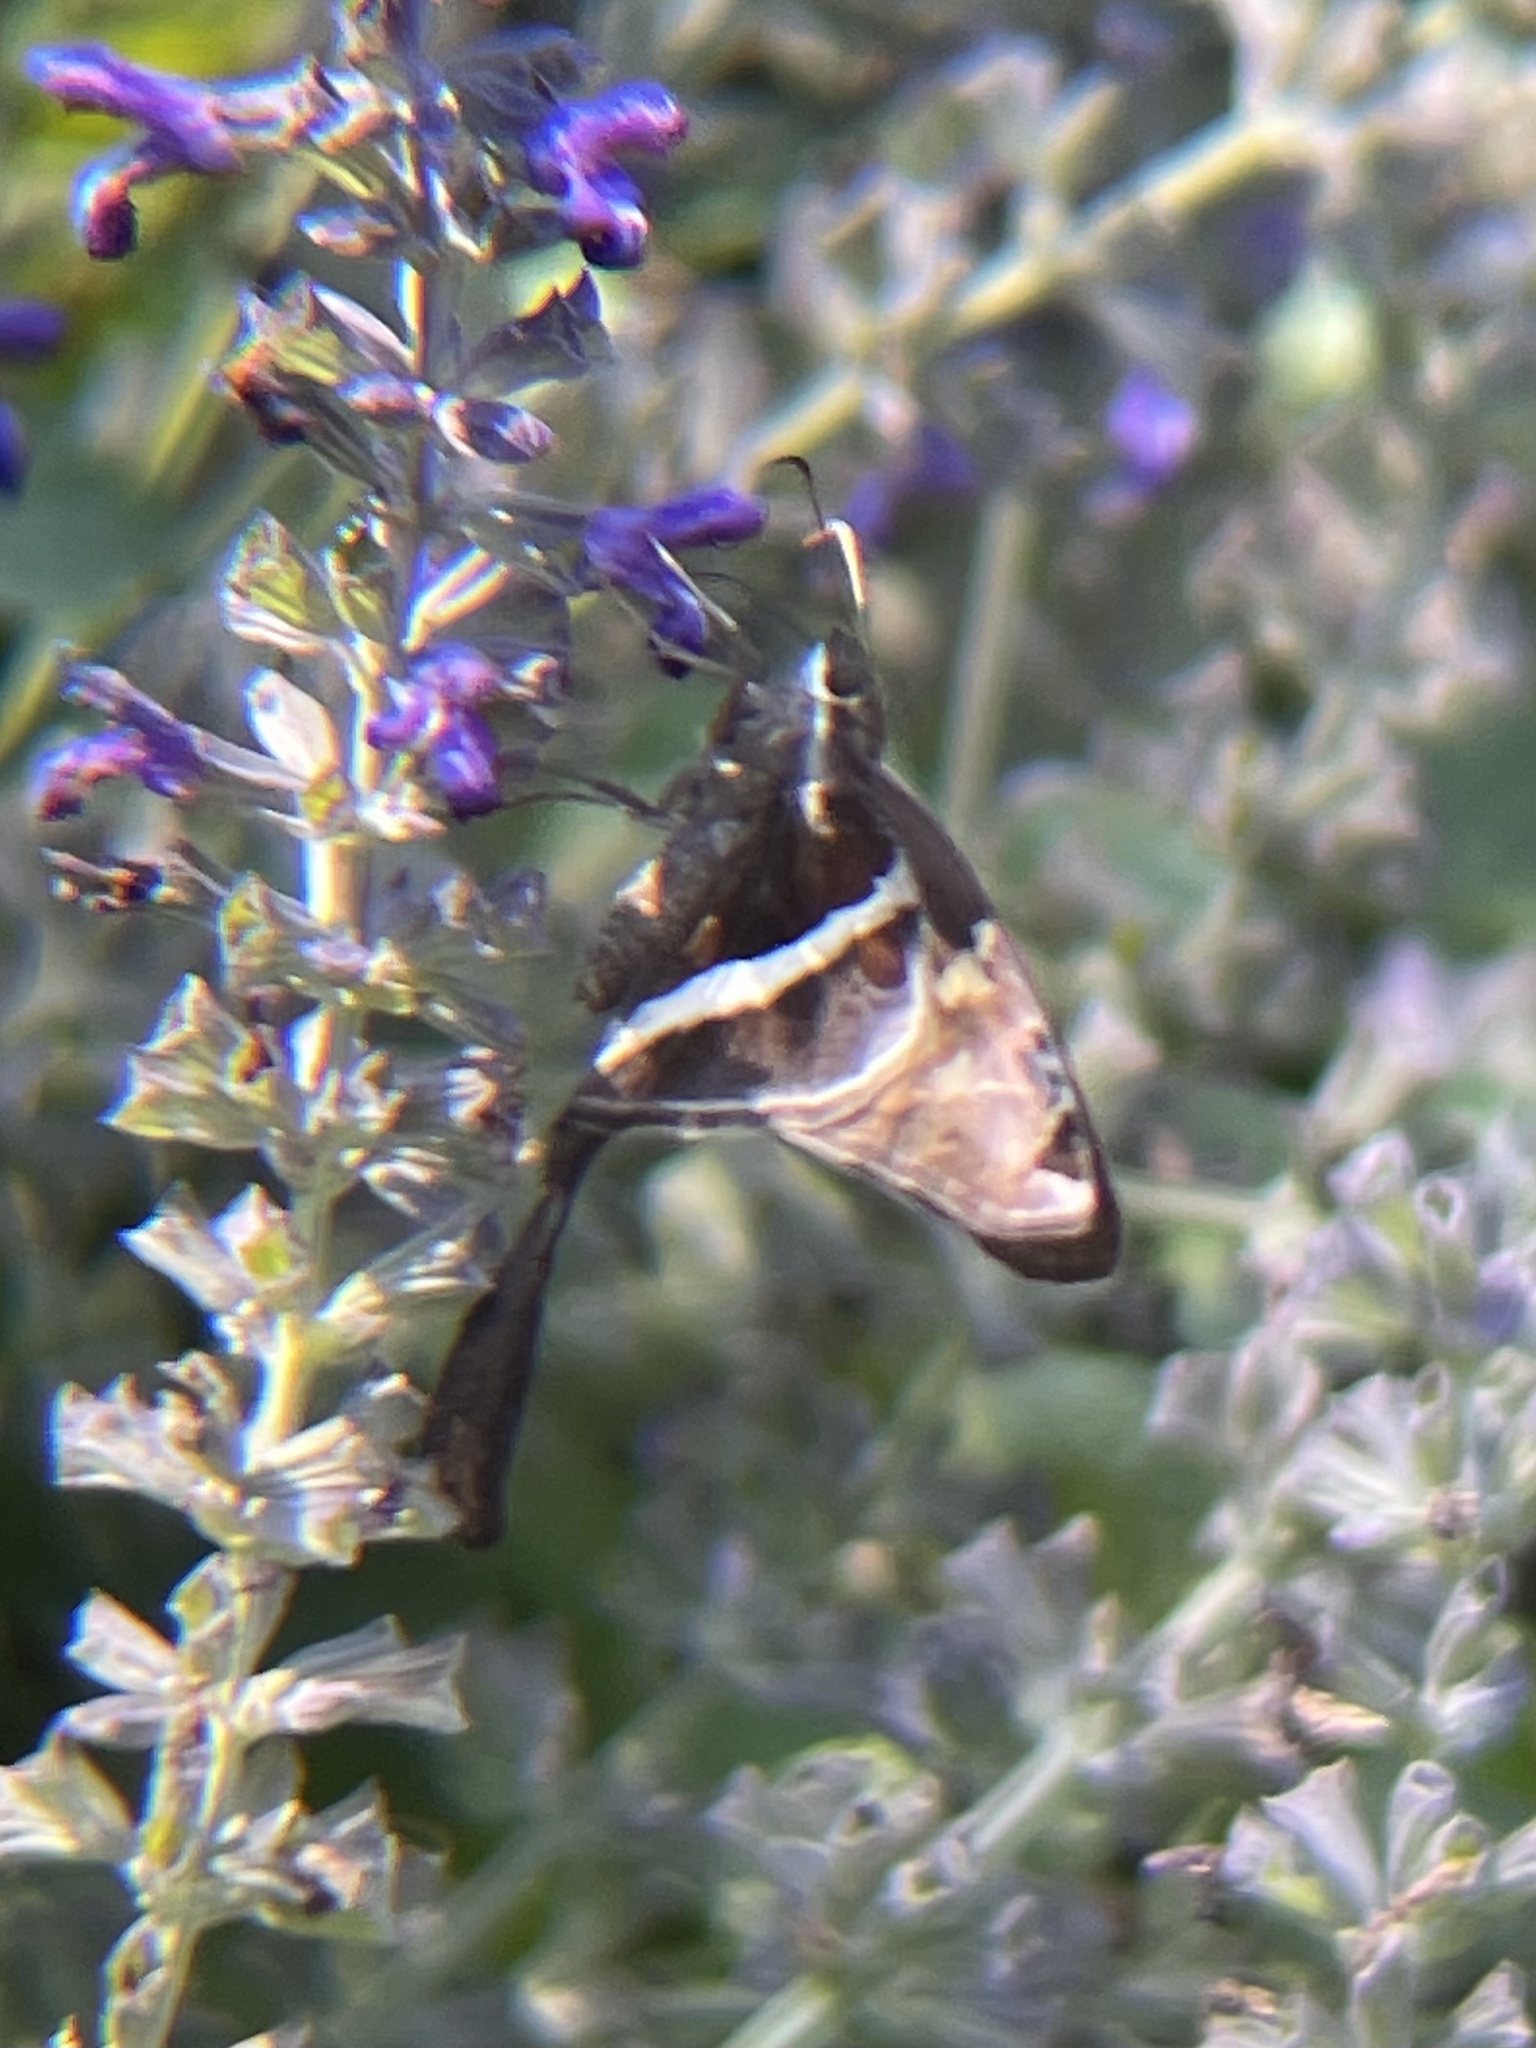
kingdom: Animalia
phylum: Arthropoda
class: Insecta
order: Lepidoptera
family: Hesperiidae
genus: Chioides
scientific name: Chioides catillus
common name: Silverbanded skipper
